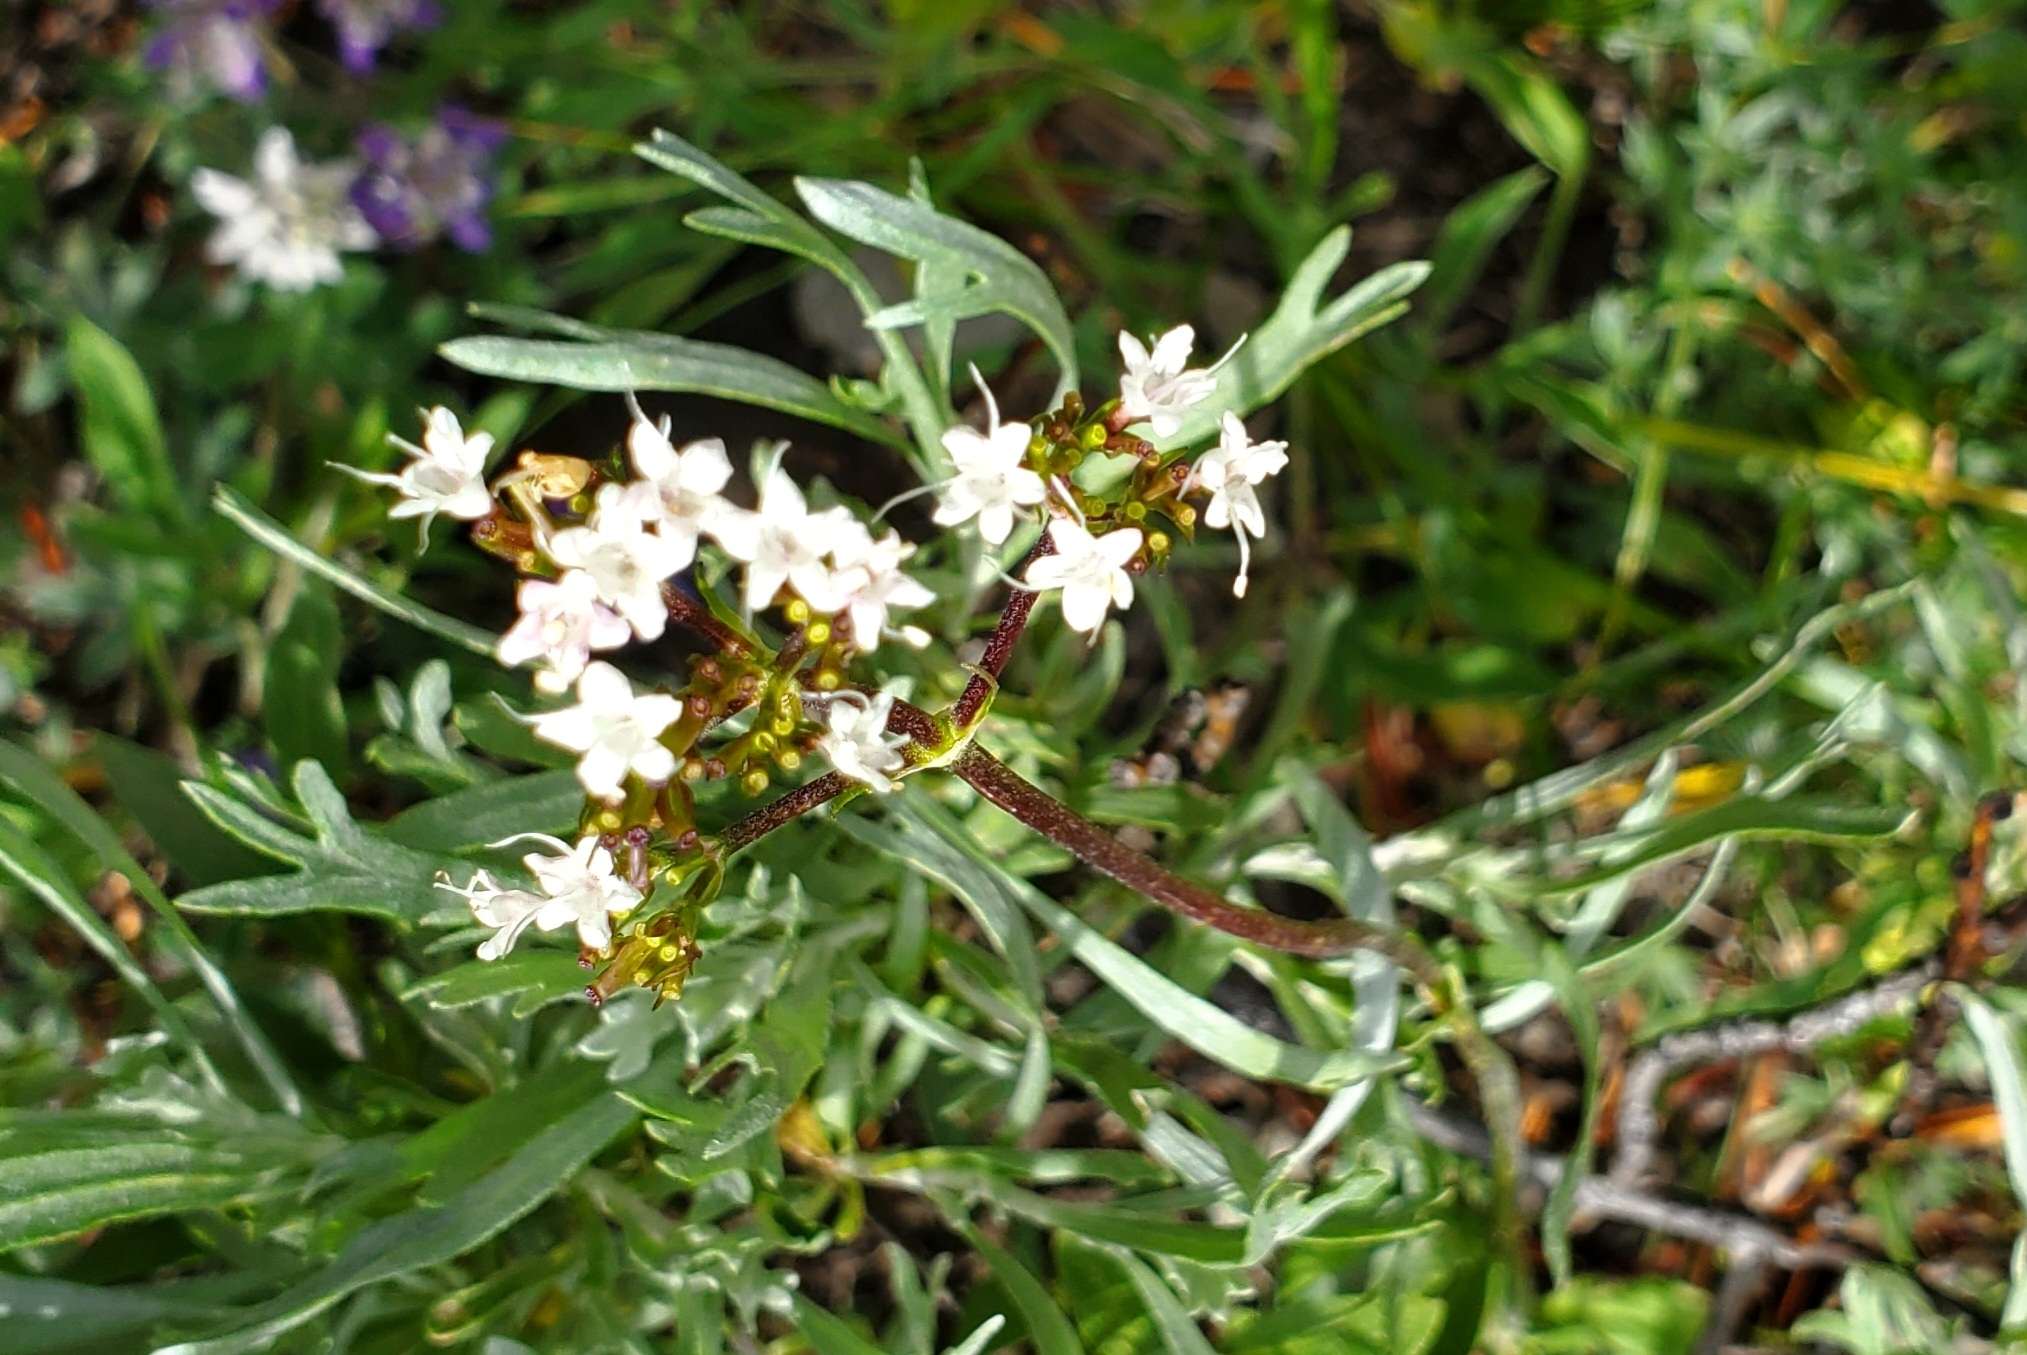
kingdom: Plantae
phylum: Tracheophyta
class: Magnoliopsida
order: Dipsacales
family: Caprifoliaceae
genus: Valeriana
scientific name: Valeriana californica
